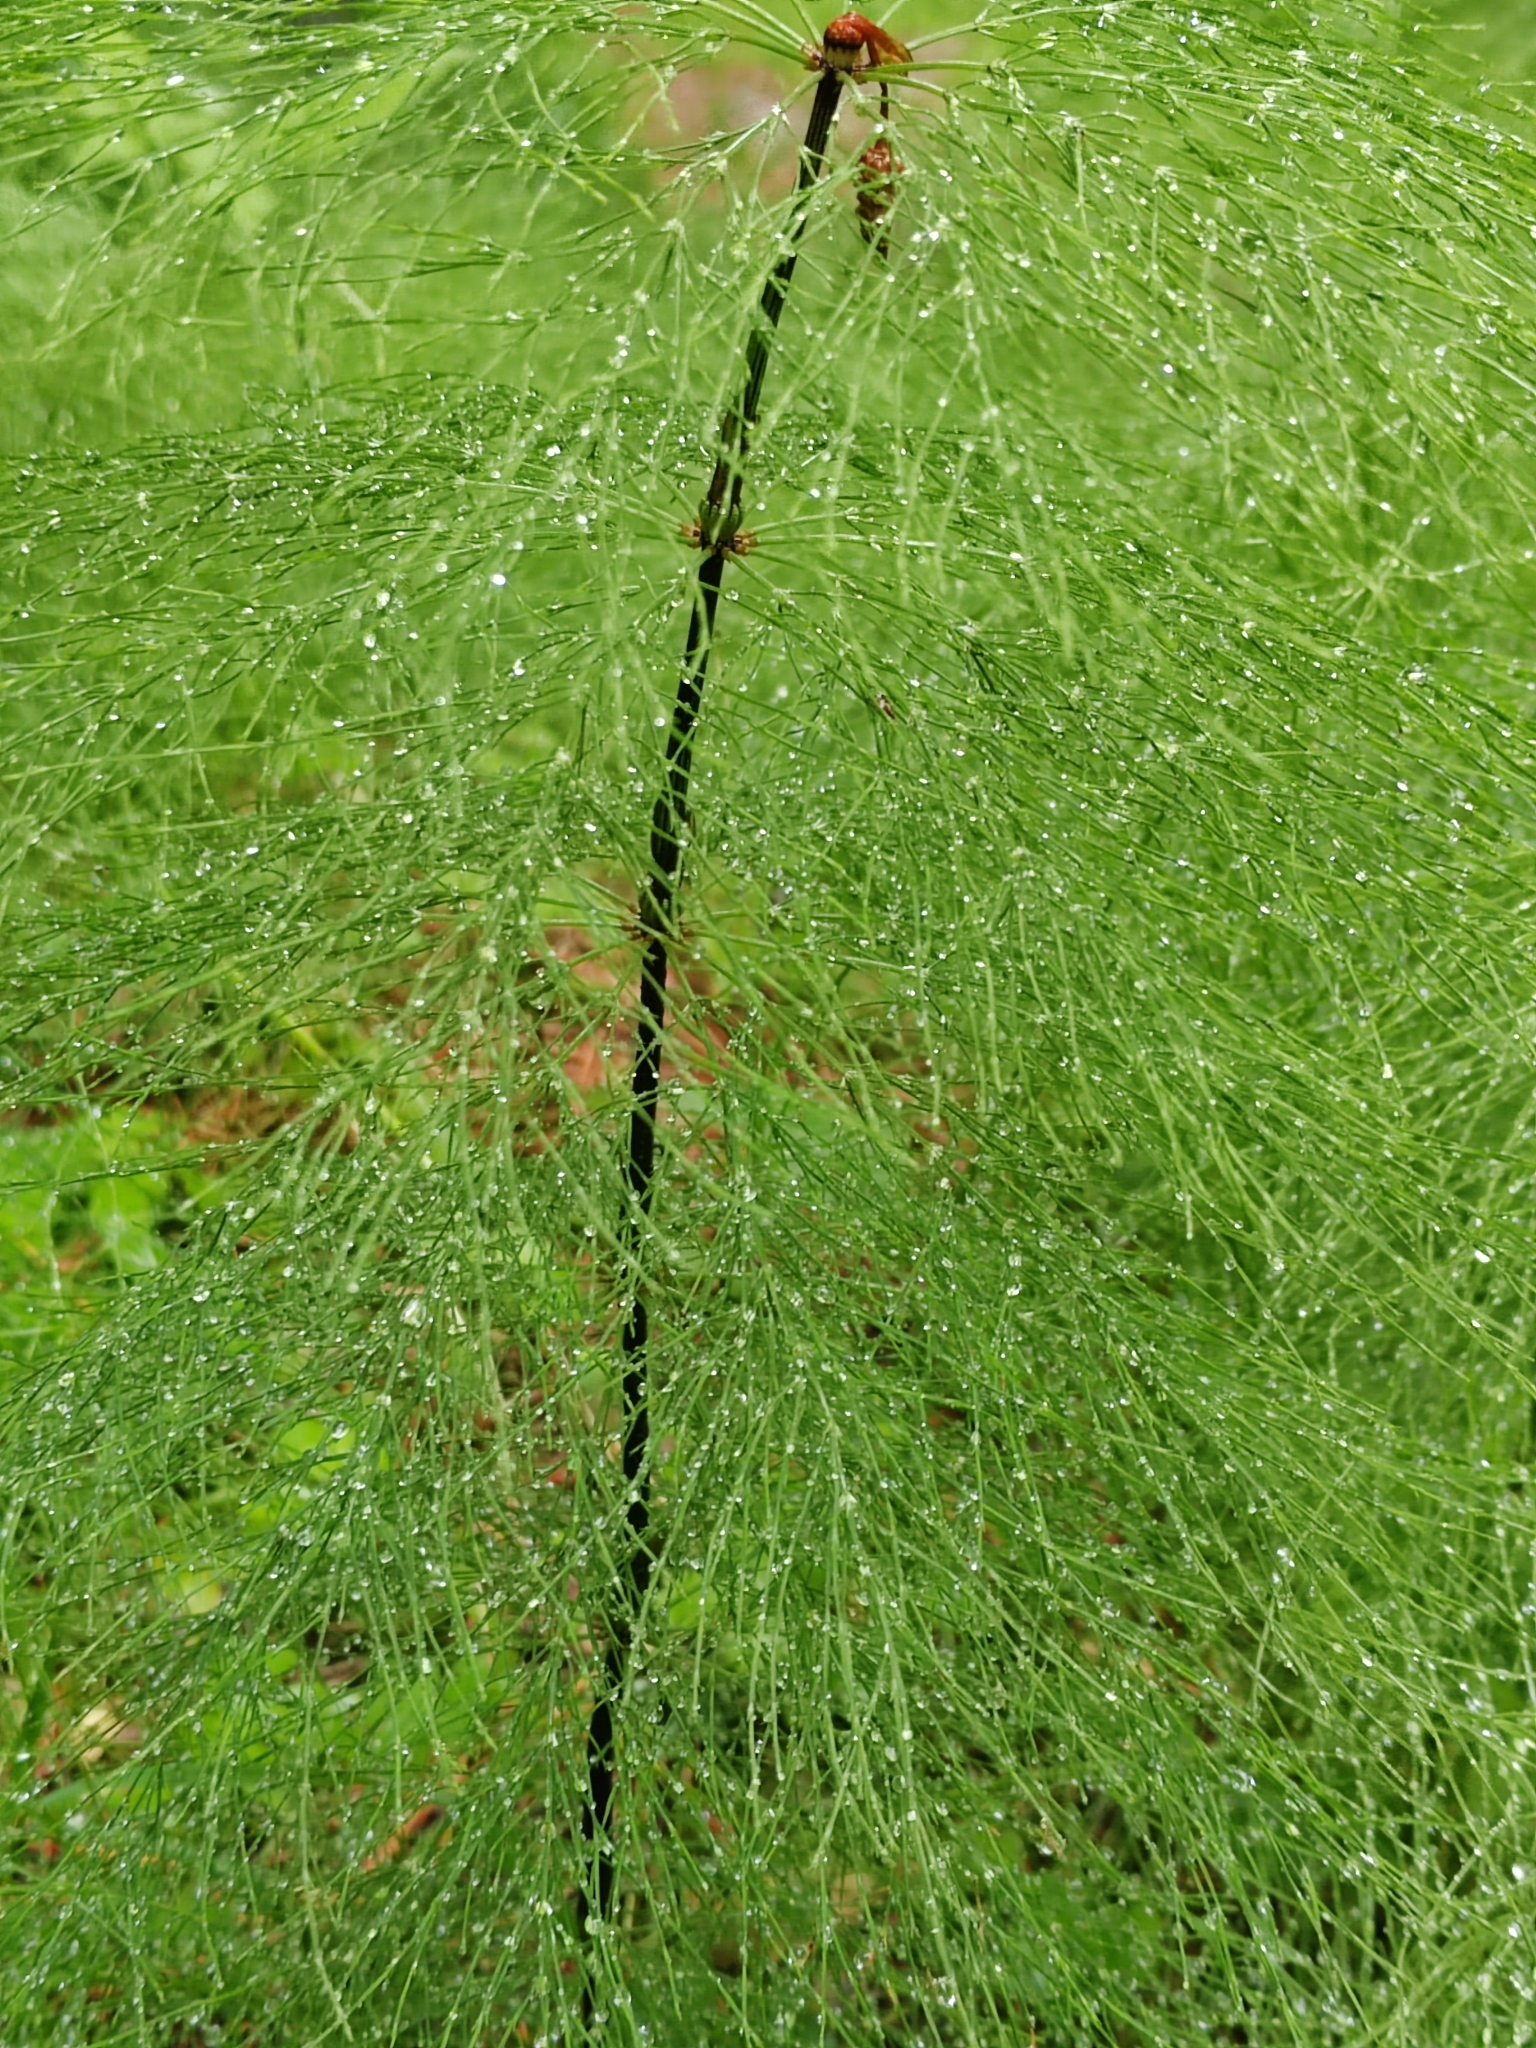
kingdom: Plantae
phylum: Tracheophyta
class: Polypodiopsida
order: Equisetales
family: Equisetaceae
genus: Equisetum
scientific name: Equisetum sylvaticum
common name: Wood horsetail
